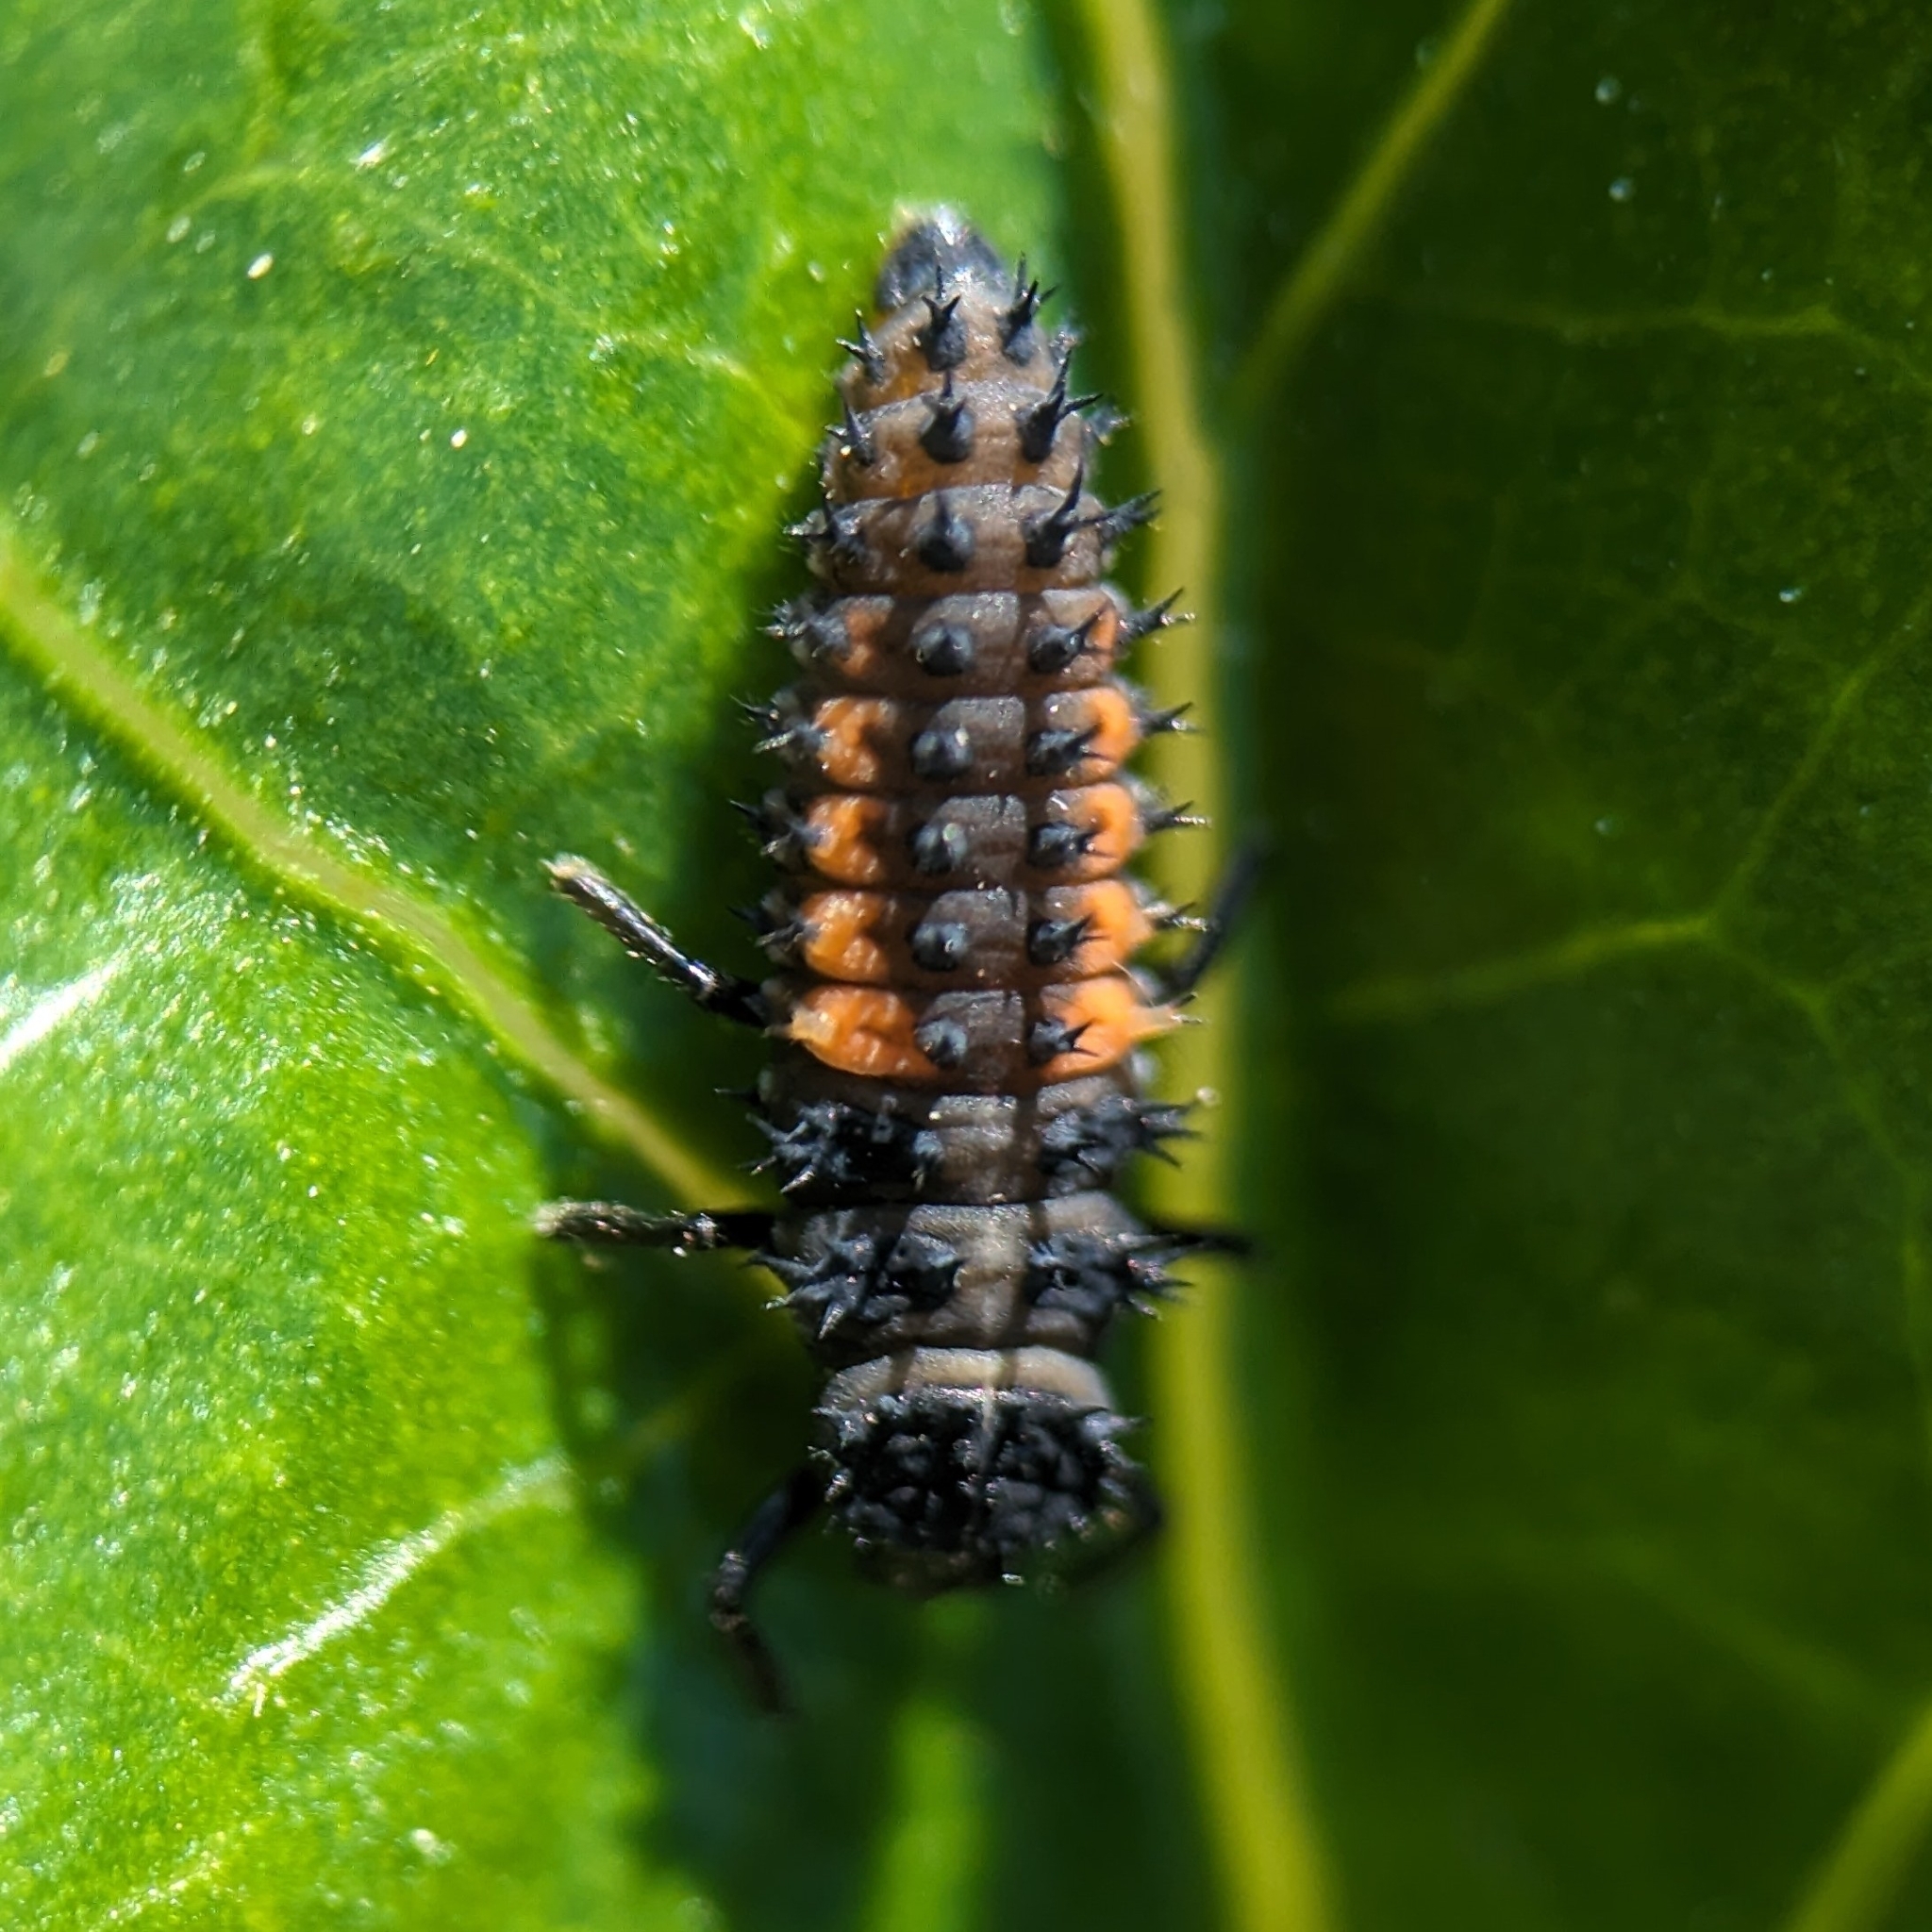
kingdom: Animalia
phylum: Arthropoda
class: Insecta
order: Coleoptera
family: Coccinellidae
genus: Harmonia
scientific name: Harmonia axyridis
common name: Harlequin ladybird
